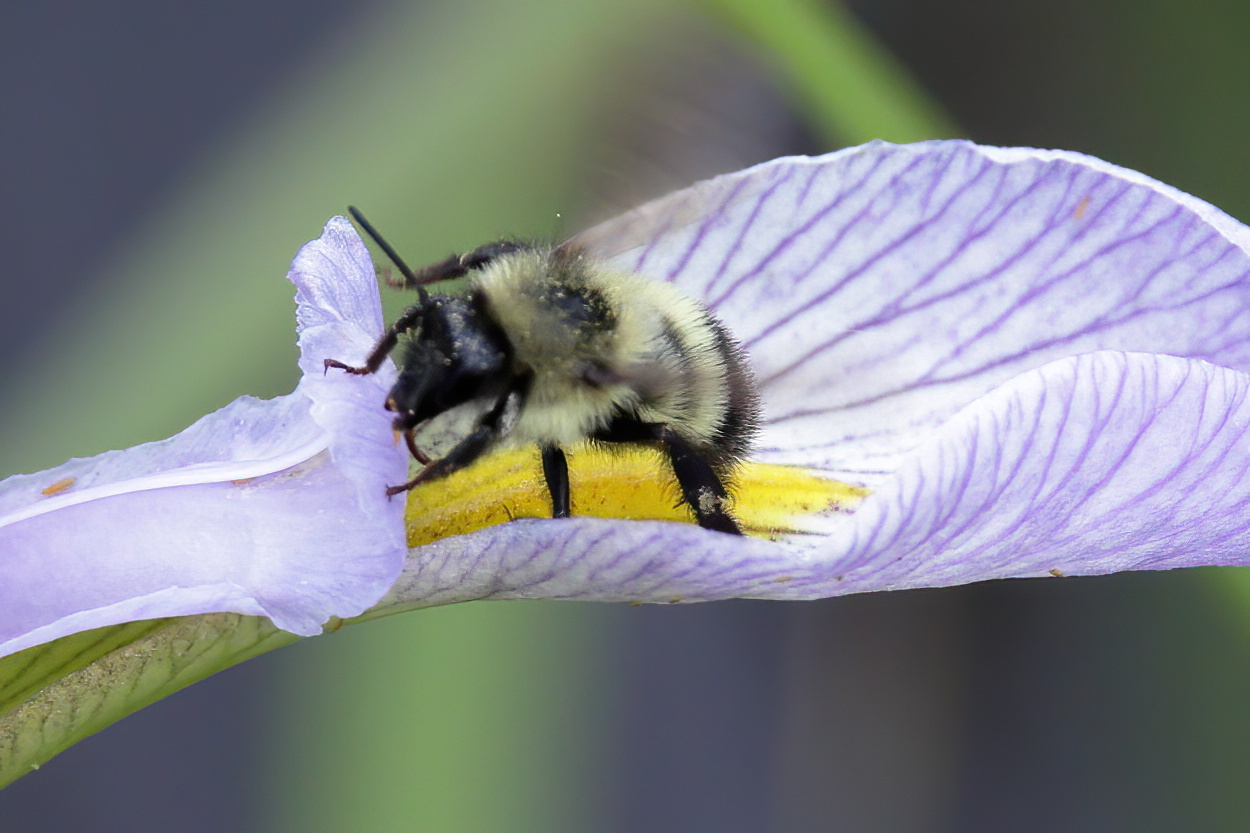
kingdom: Animalia
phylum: Arthropoda
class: Insecta
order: Hymenoptera
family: Apidae
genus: Bombus
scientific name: Bombus vagans
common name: Half-black bumble bee
